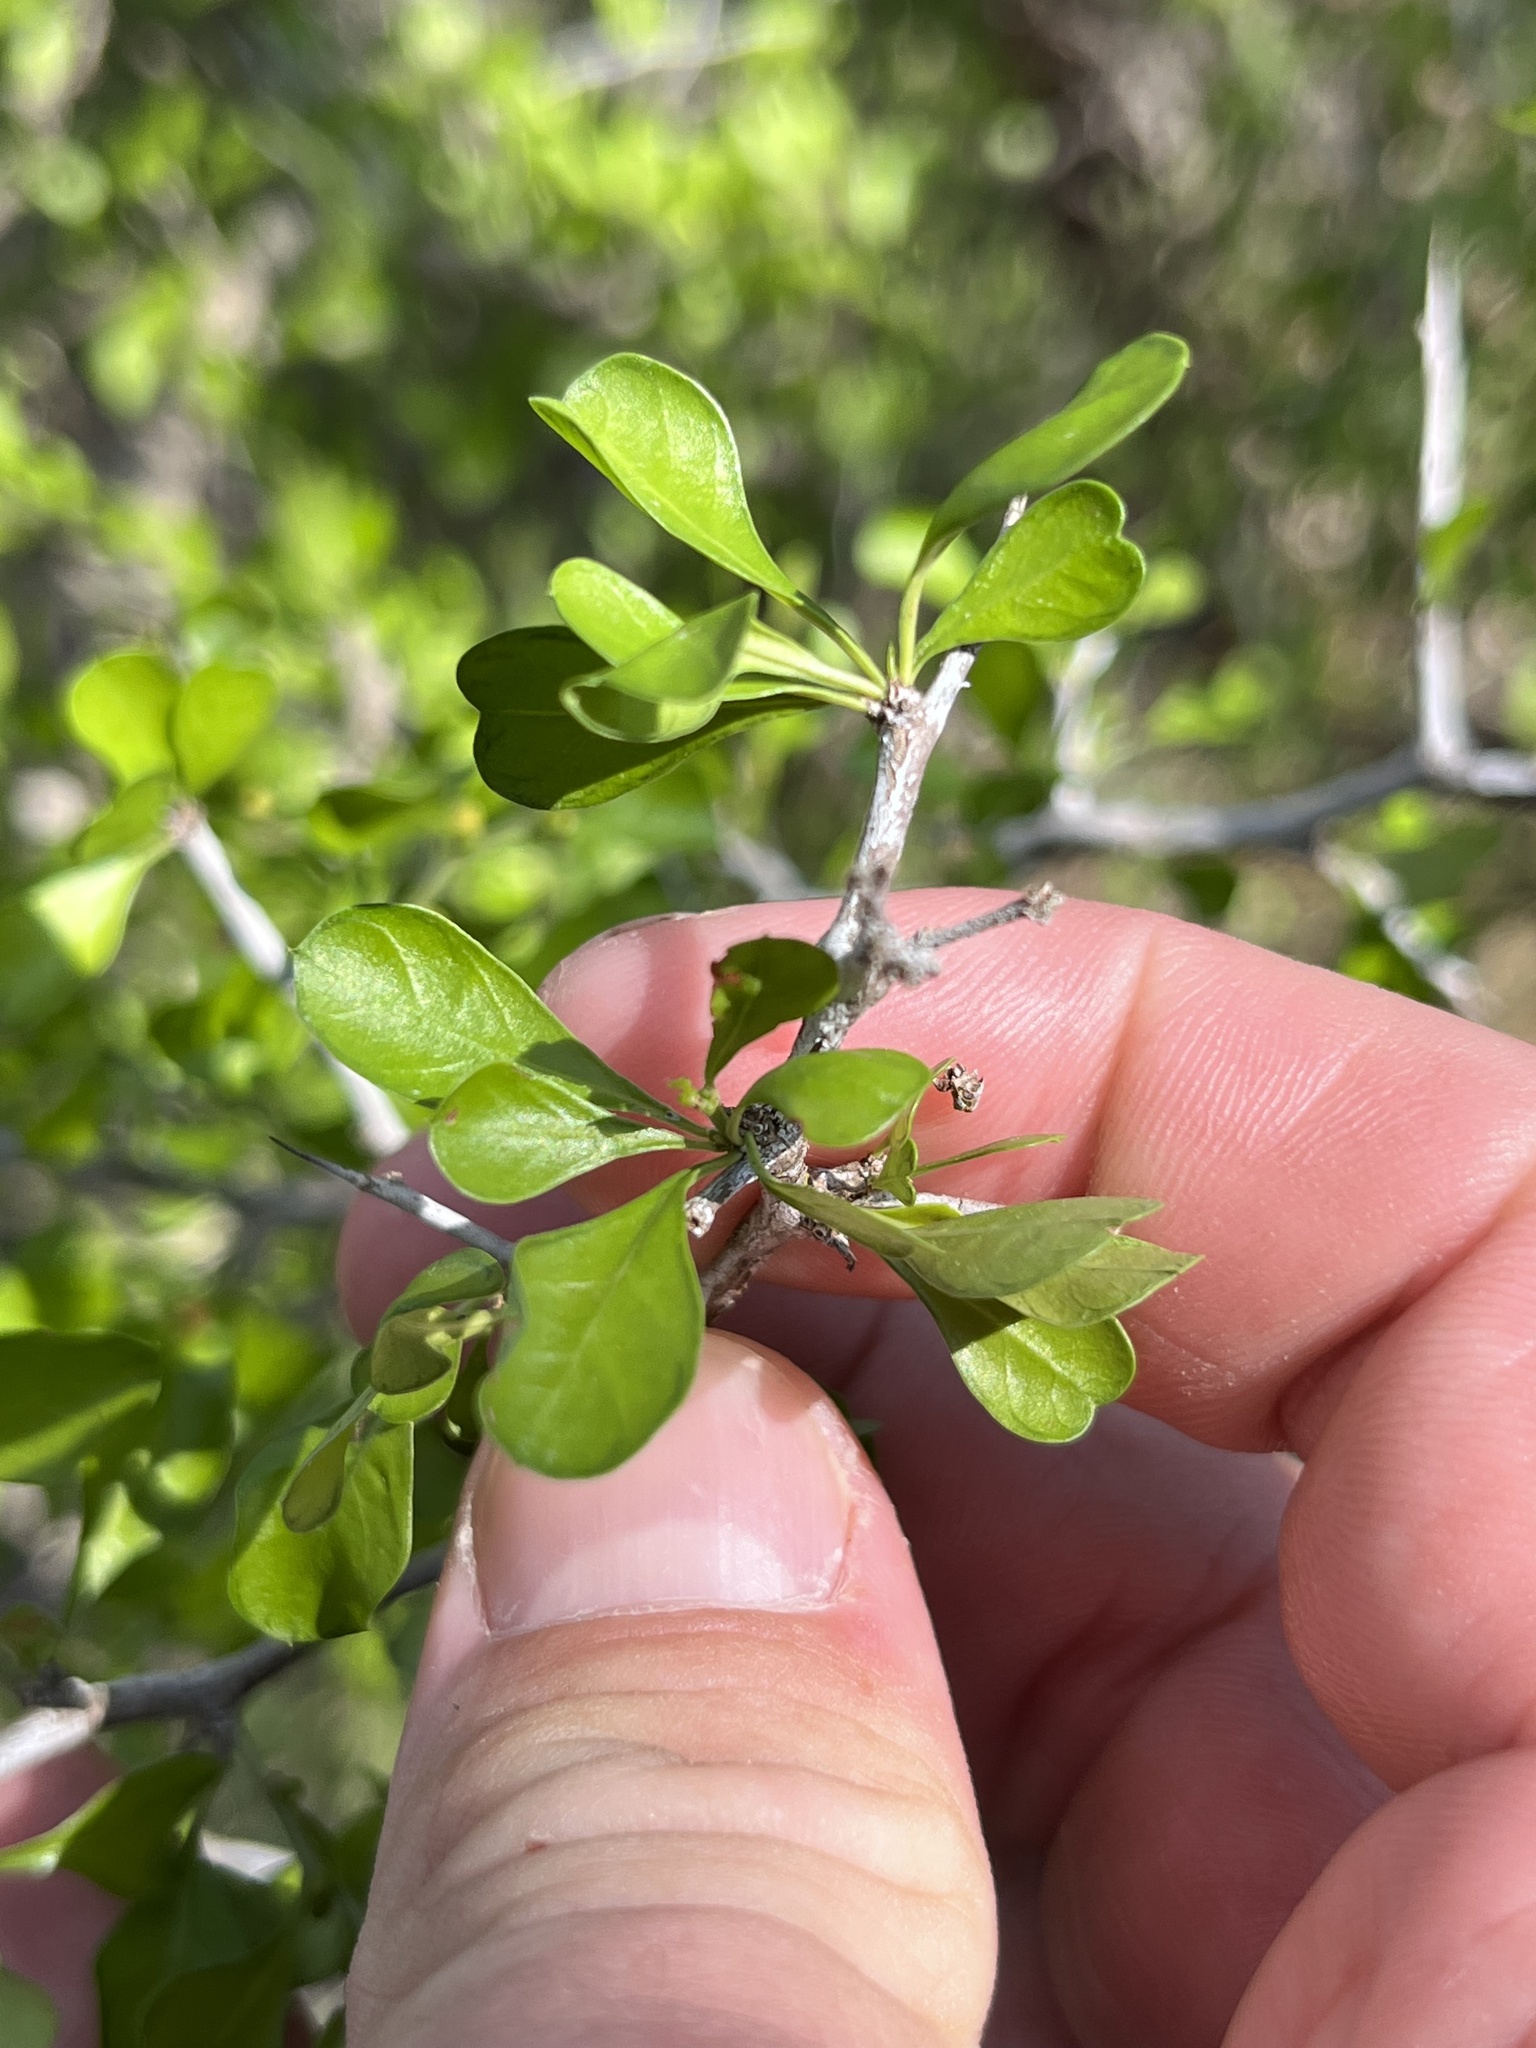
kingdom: Plantae
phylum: Tracheophyta
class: Magnoliopsida
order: Rosales
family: Rhamnaceae
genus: Condalia
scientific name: Condalia hookeri
